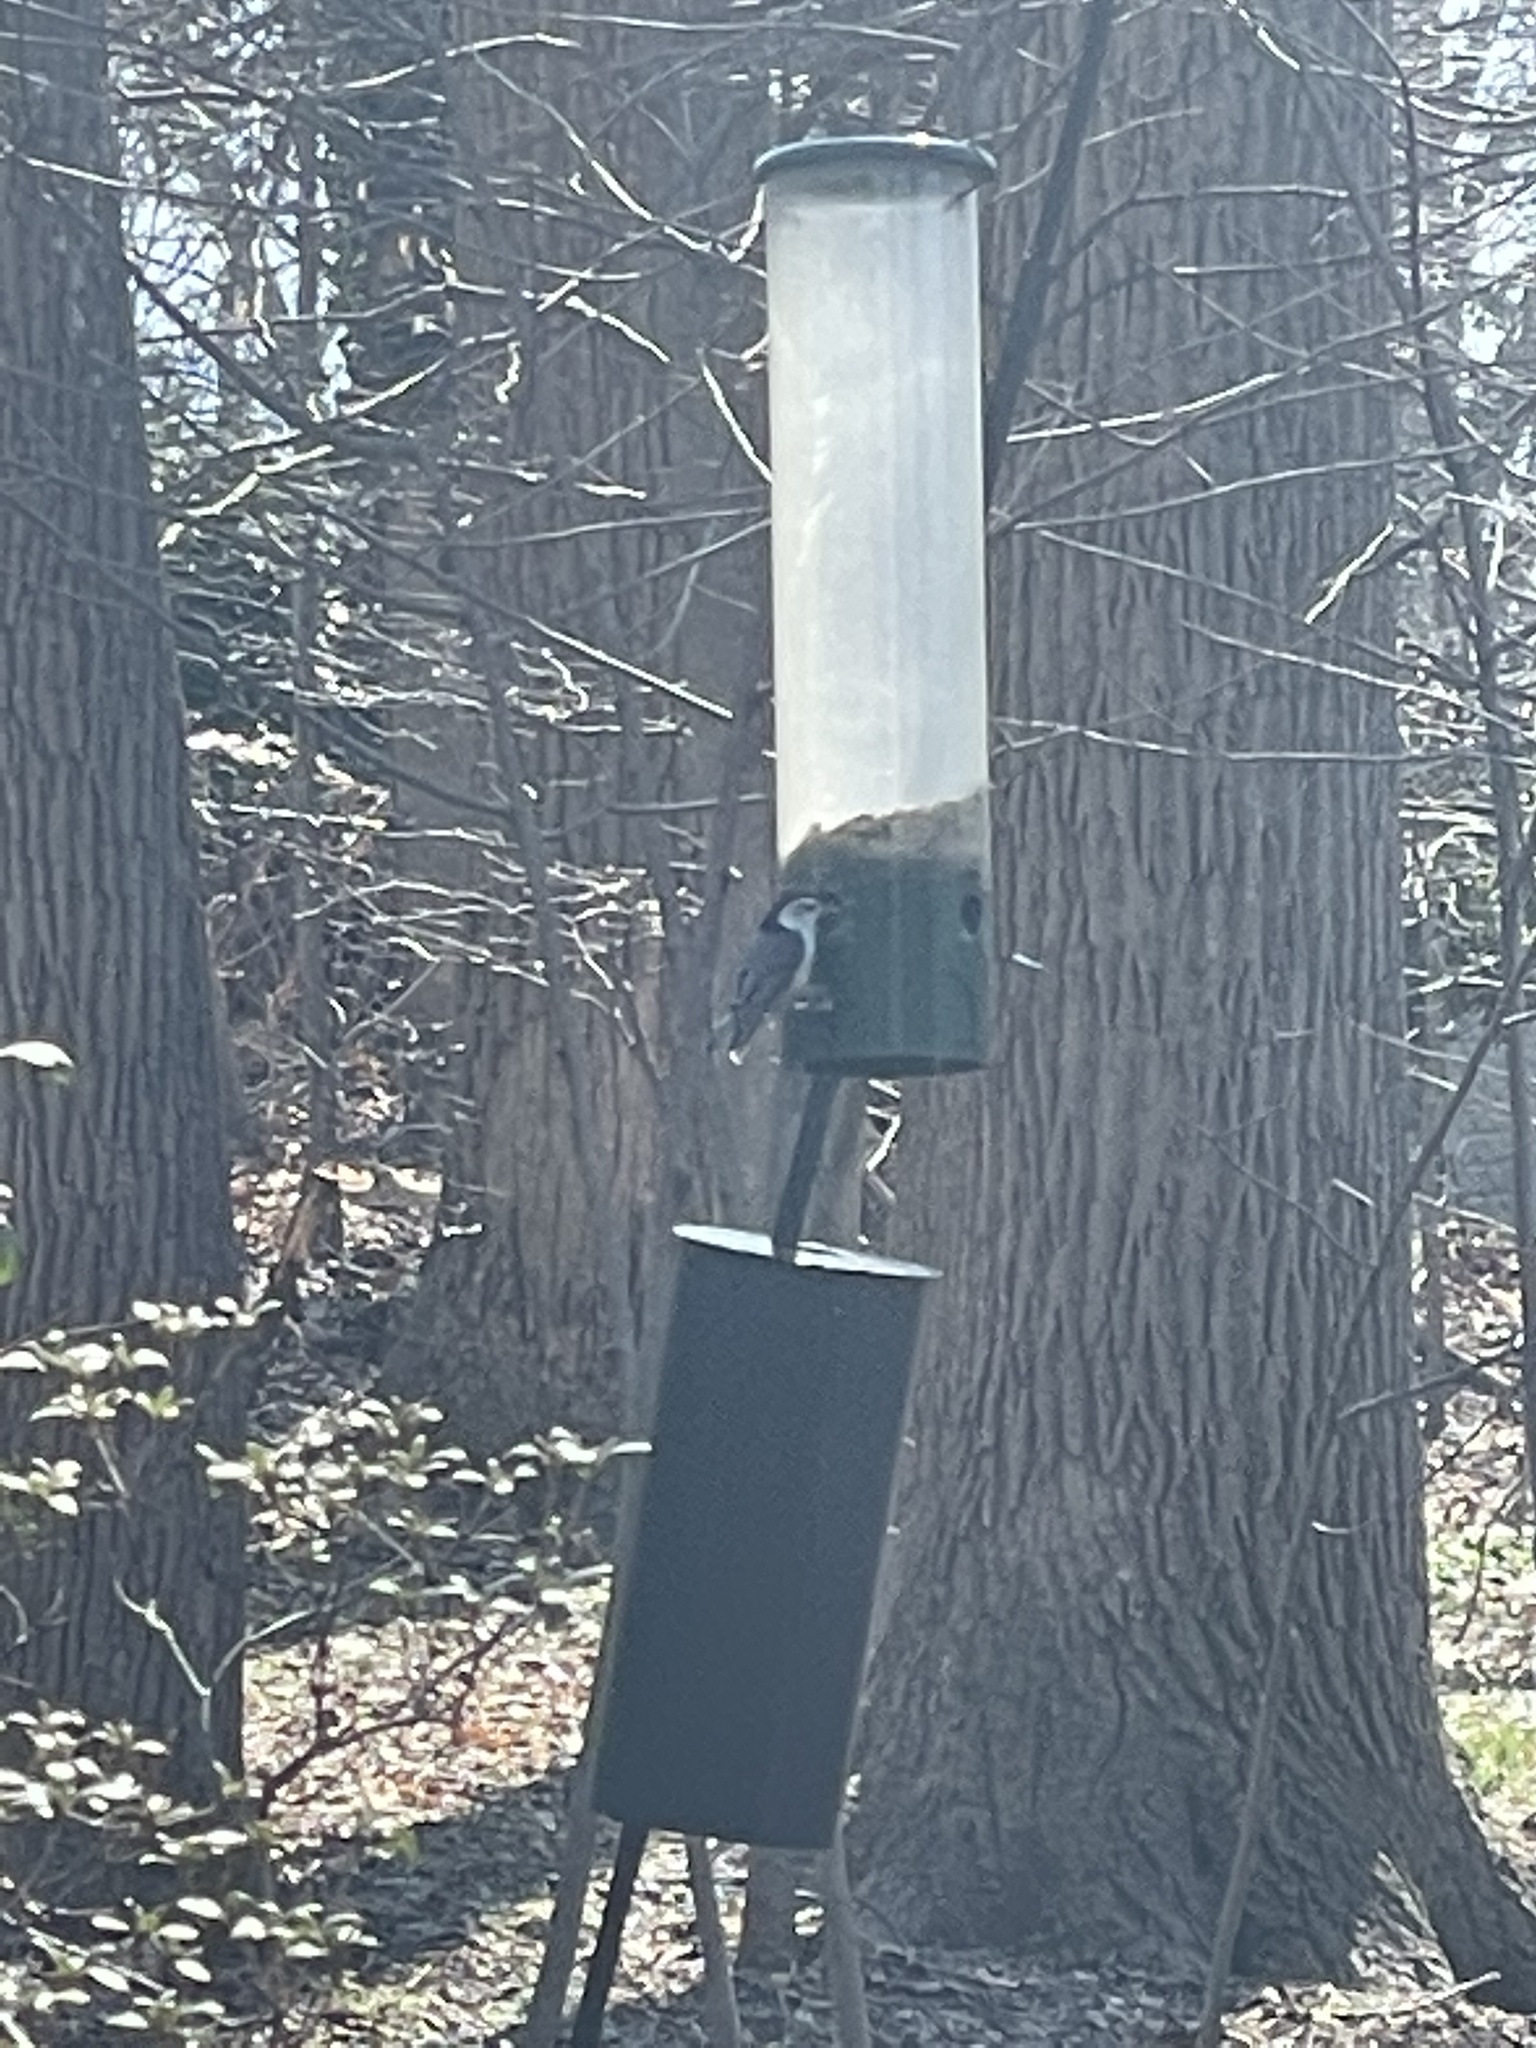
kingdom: Animalia
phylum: Chordata
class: Aves
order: Passeriformes
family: Sittidae
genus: Sitta
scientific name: Sitta carolinensis
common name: White-breasted nuthatch
